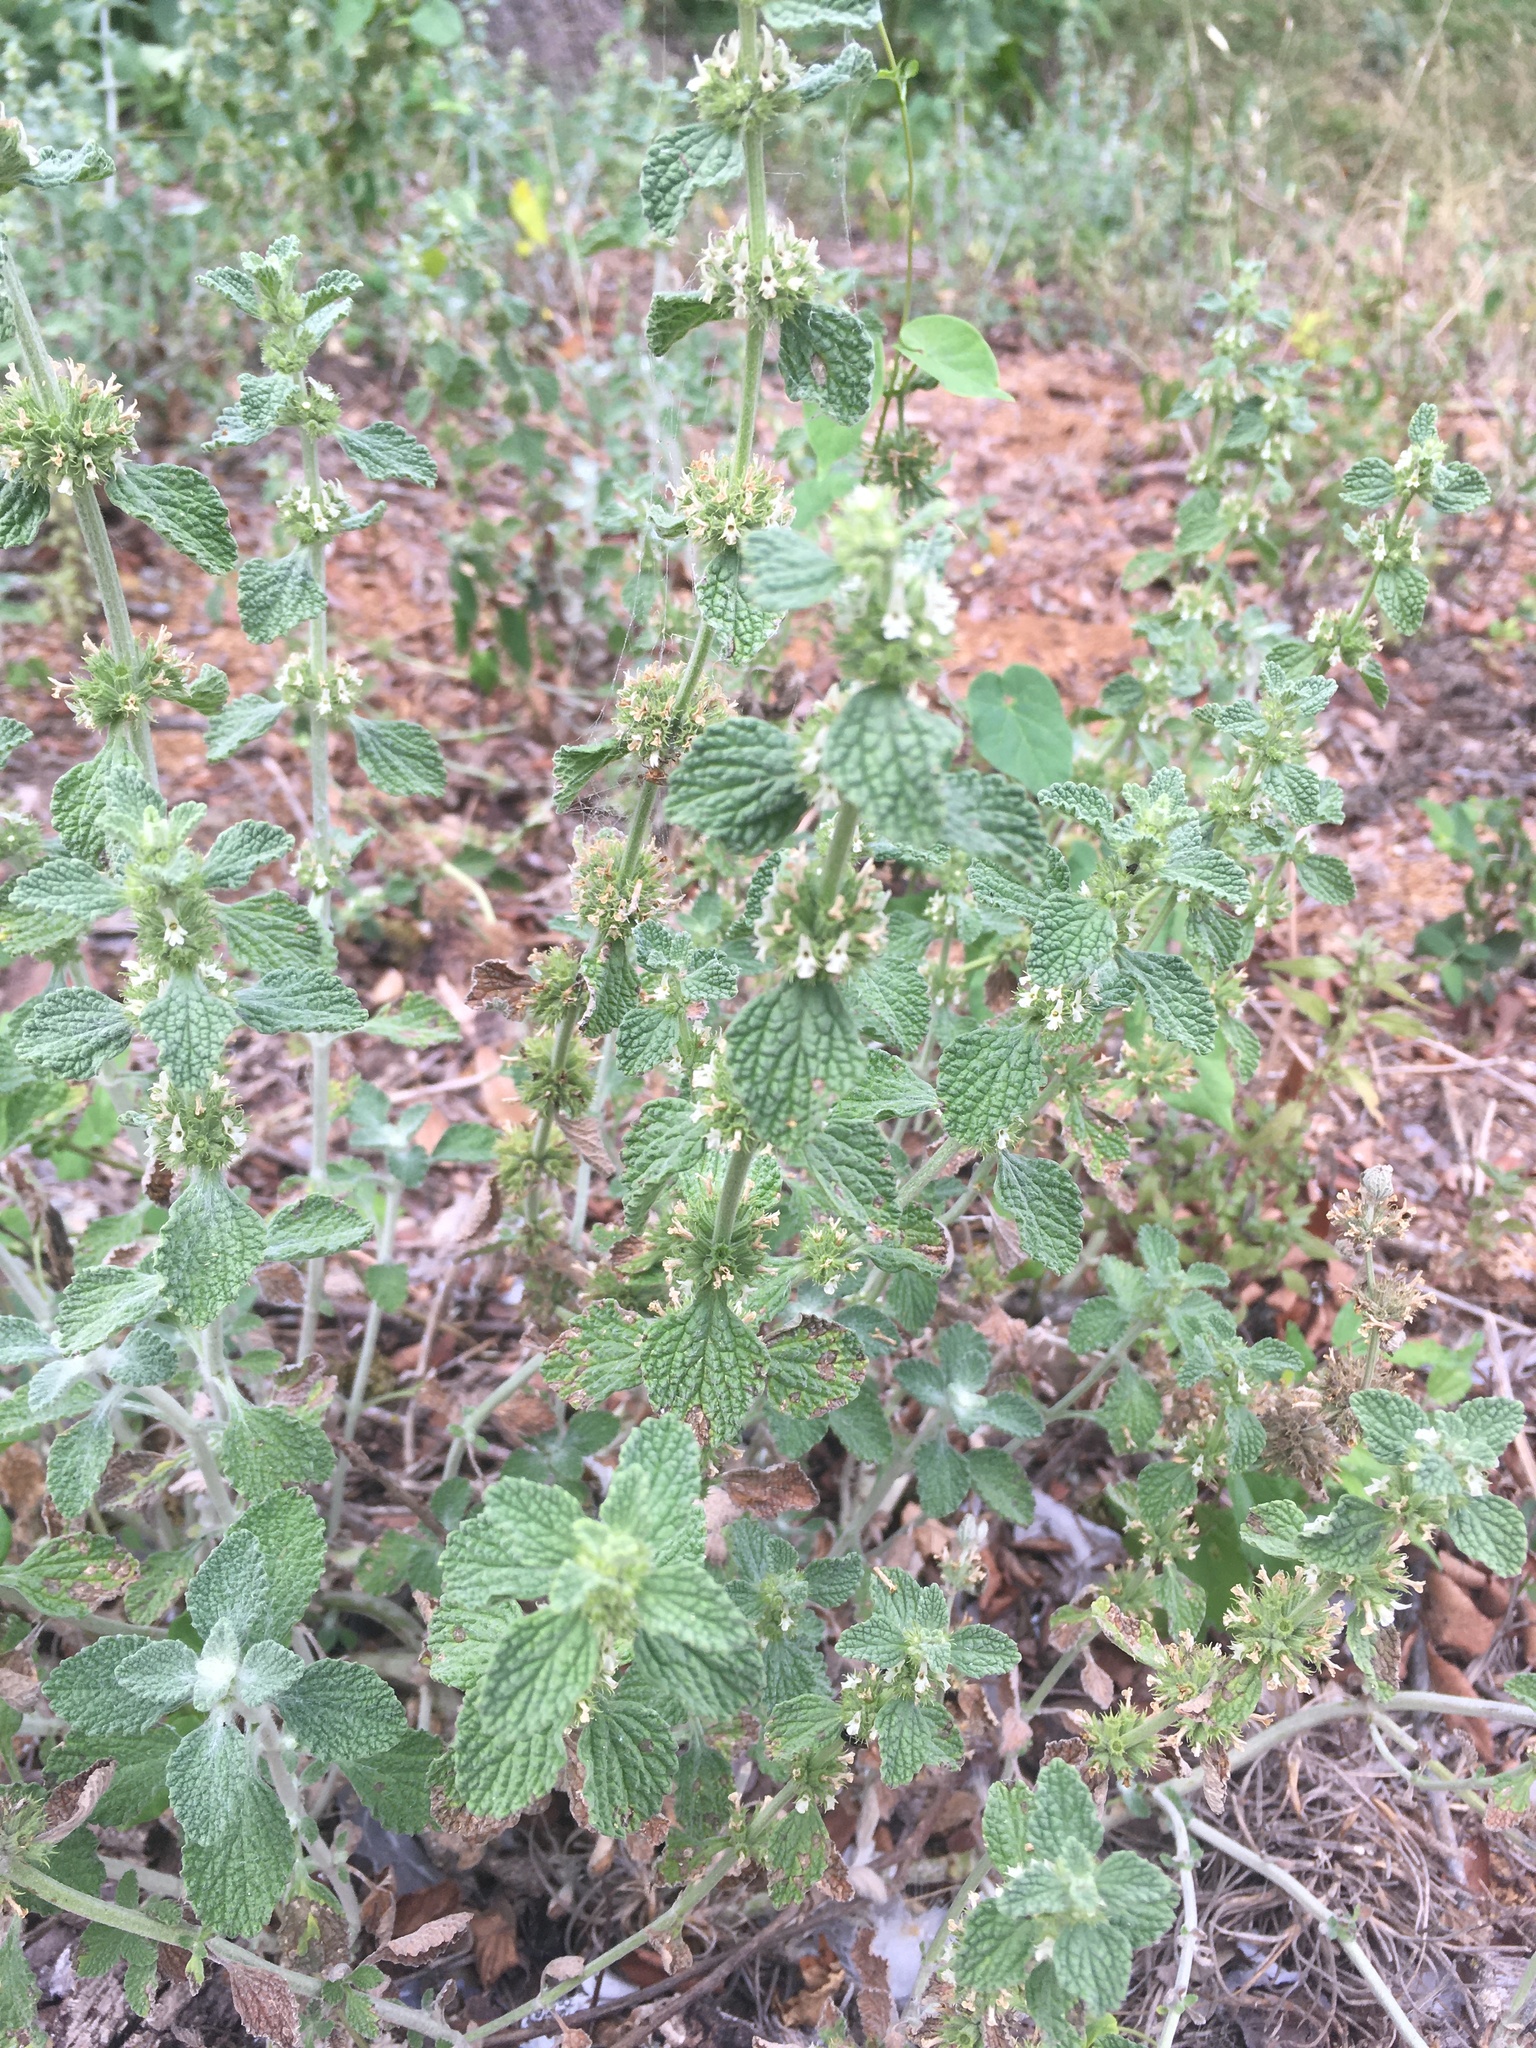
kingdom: Plantae
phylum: Tracheophyta
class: Magnoliopsida
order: Lamiales
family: Lamiaceae
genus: Marrubium
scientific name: Marrubium vulgare
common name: Horehound
